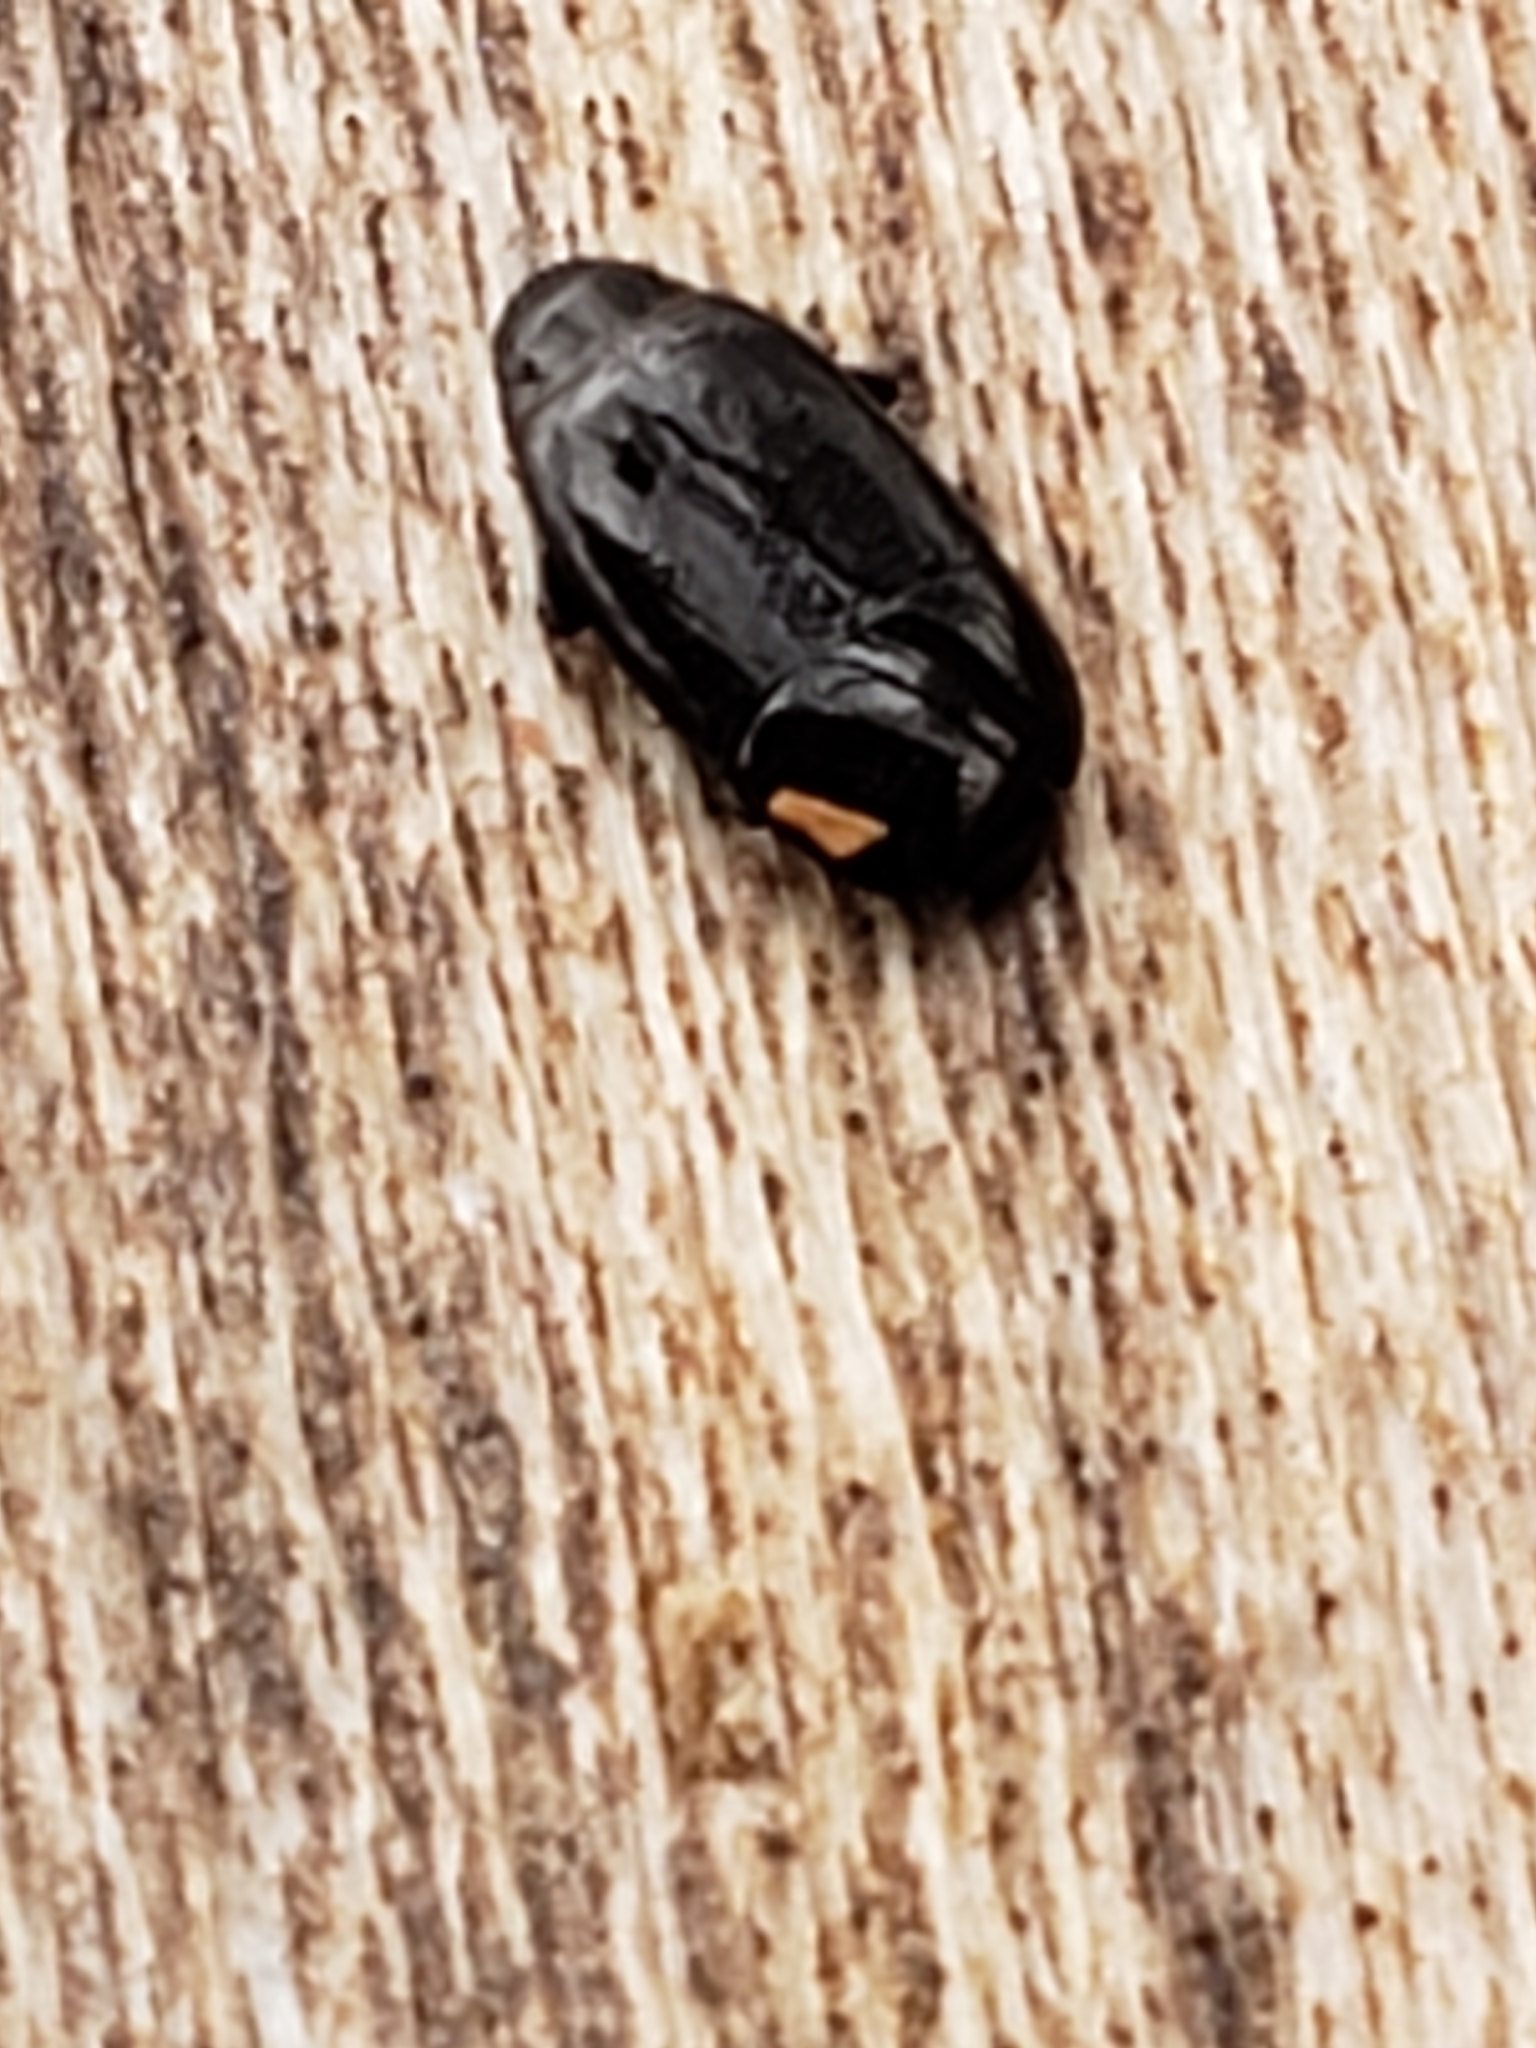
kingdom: Animalia
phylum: Arthropoda
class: Insecta
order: Coleoptera
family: Histeridae
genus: Platylomalus
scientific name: Platylomalus aequalis
